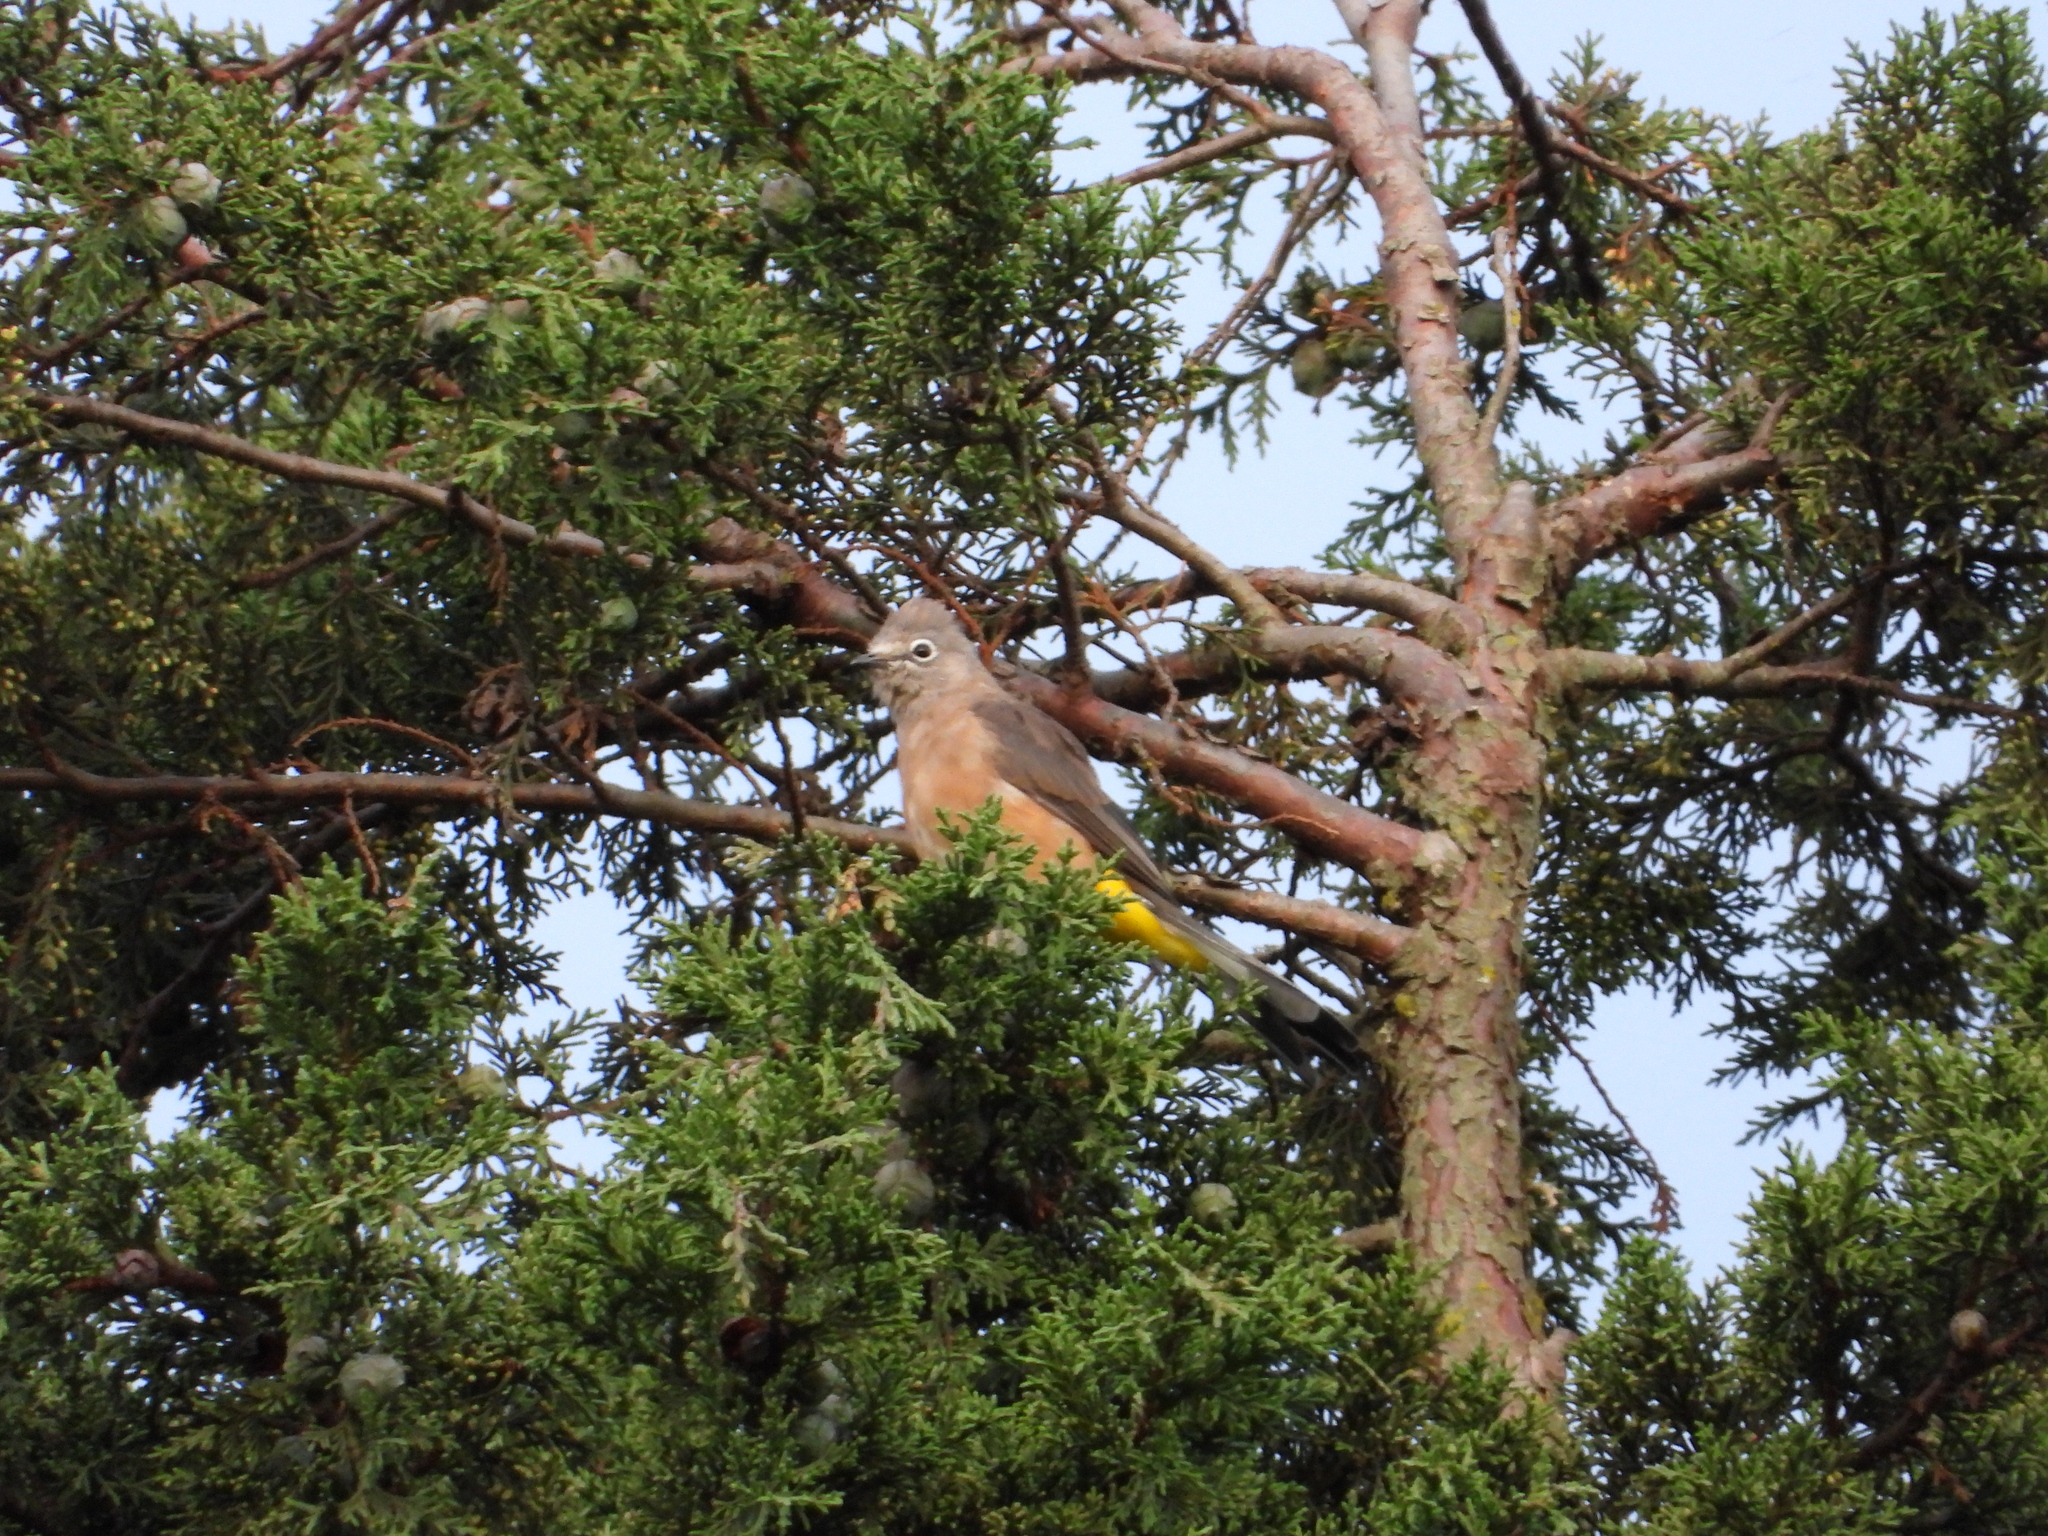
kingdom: Animalia
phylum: Chordata
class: Aves
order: Passeriformes
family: Ptilogonatidae
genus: Ptilogonys
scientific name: Ptilogonys cinereus
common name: Gray silky-flycatcher
